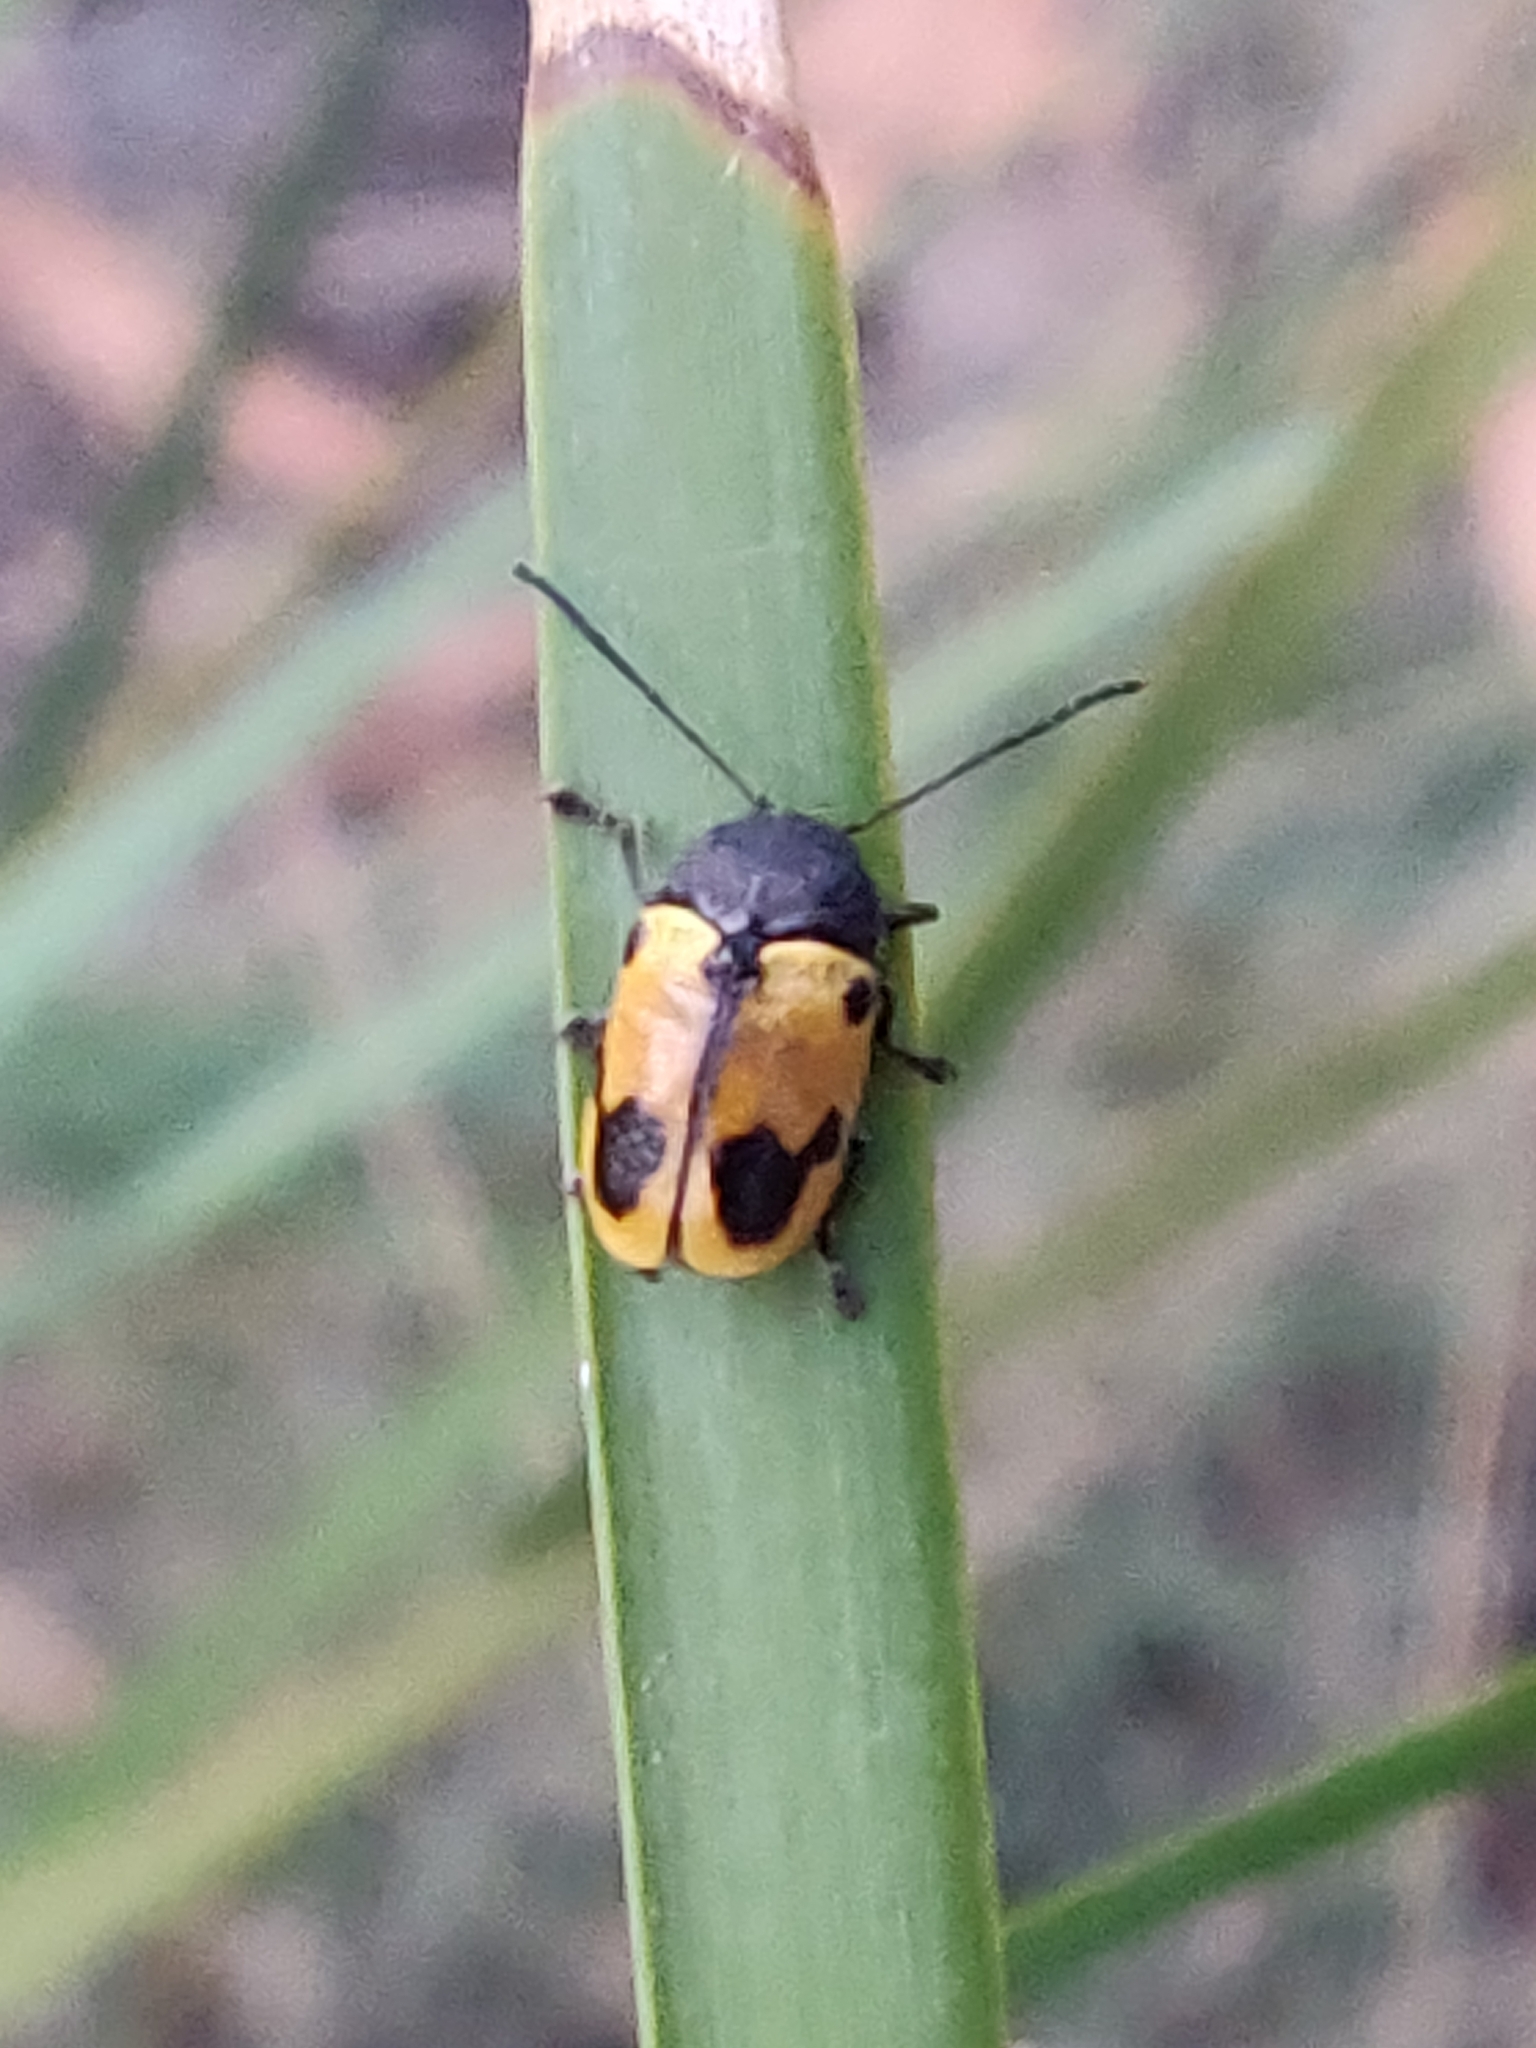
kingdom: Animalia
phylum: Arthropoda
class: Insecta
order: Coleoptera
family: Chrysomelidae
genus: Cadmus
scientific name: Cadmus
